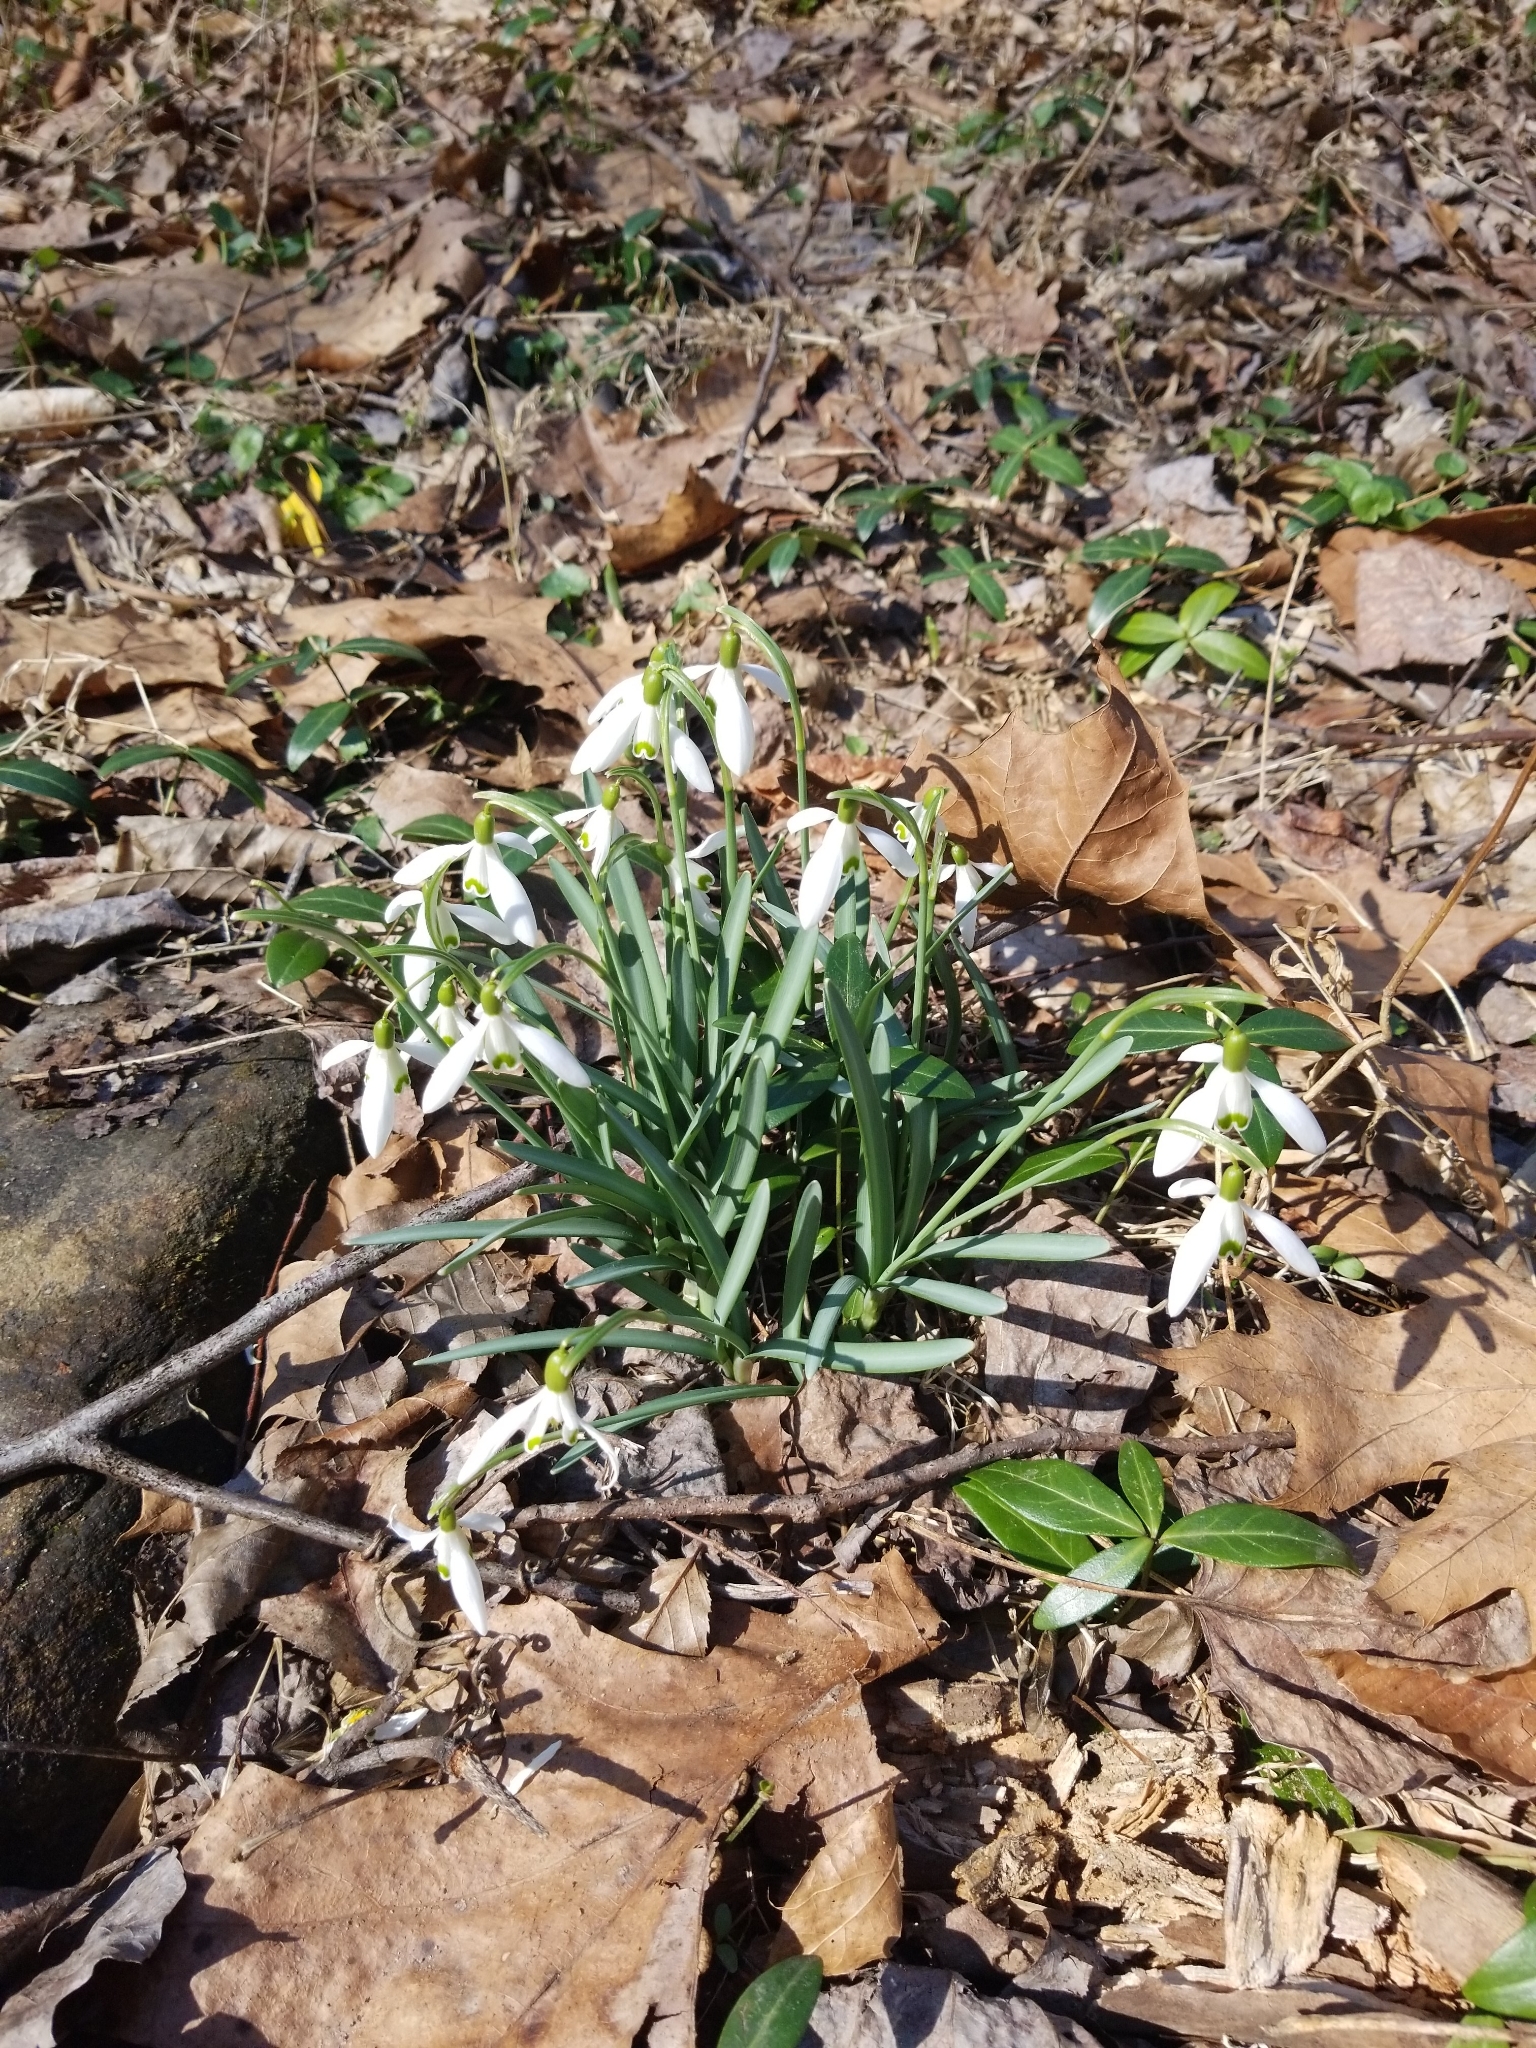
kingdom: Plantae
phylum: Tracheophyta
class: Liliopsida
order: Asparagales
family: Amaryllidaceae
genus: Galanthus
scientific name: Galanthus nivalis
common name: Snowdrop
